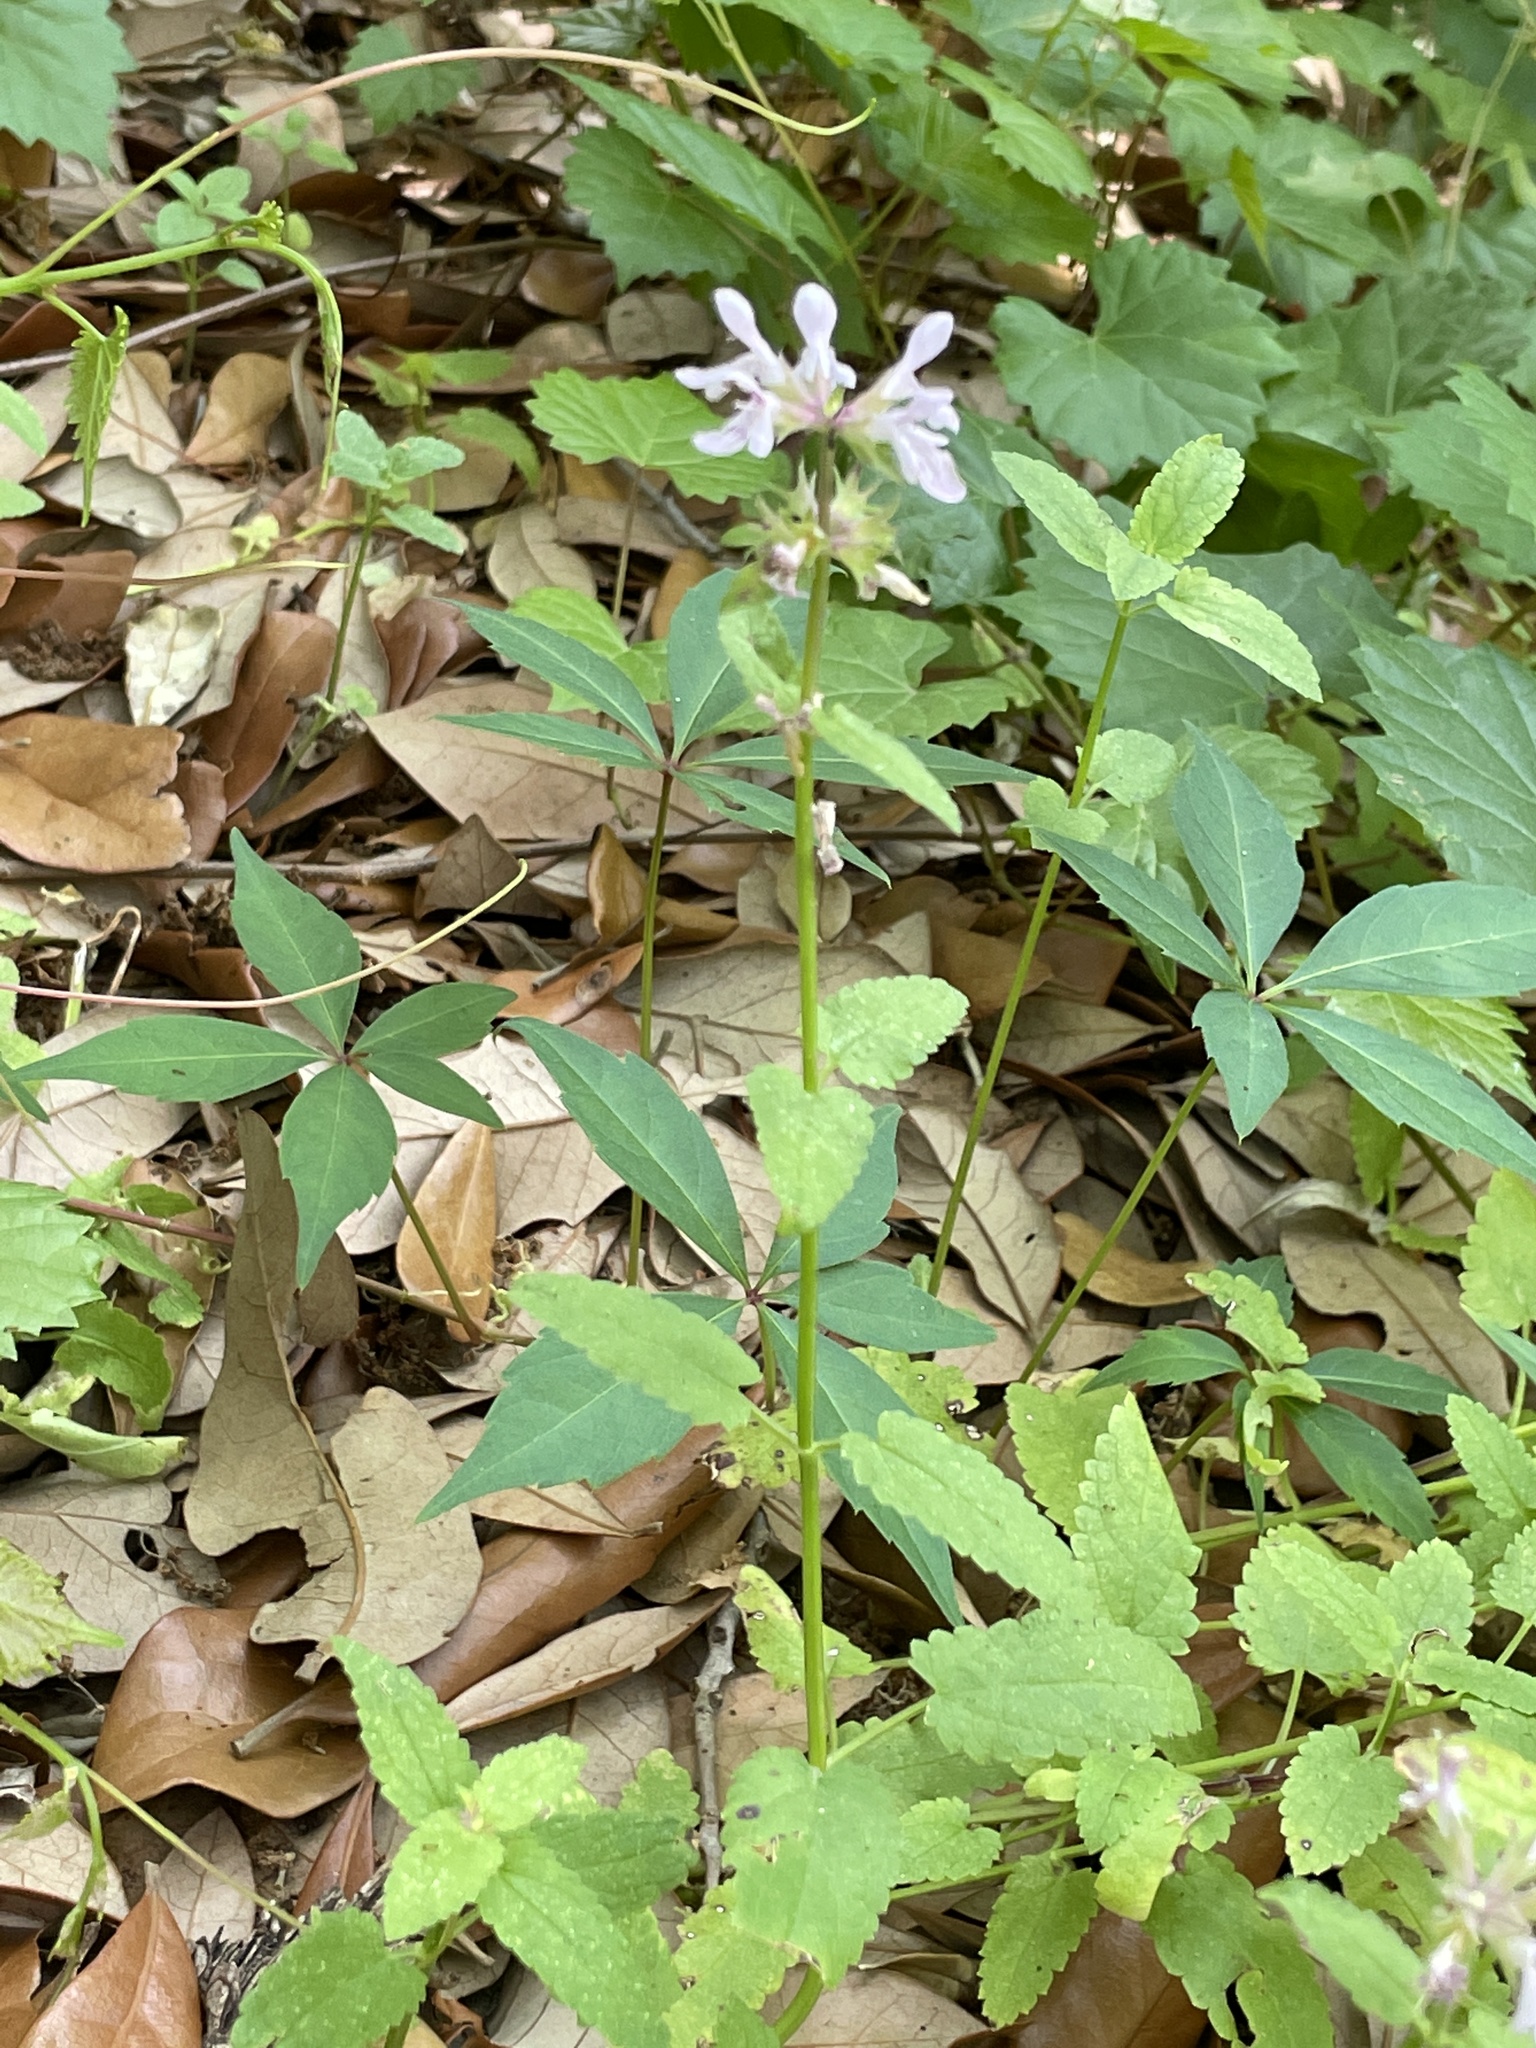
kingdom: Plantae
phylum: Tracheophyta
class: Magnoliopsida
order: Lamiales
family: Lamiaceae
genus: Stachys
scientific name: Stachys floridana
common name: Florida betony
